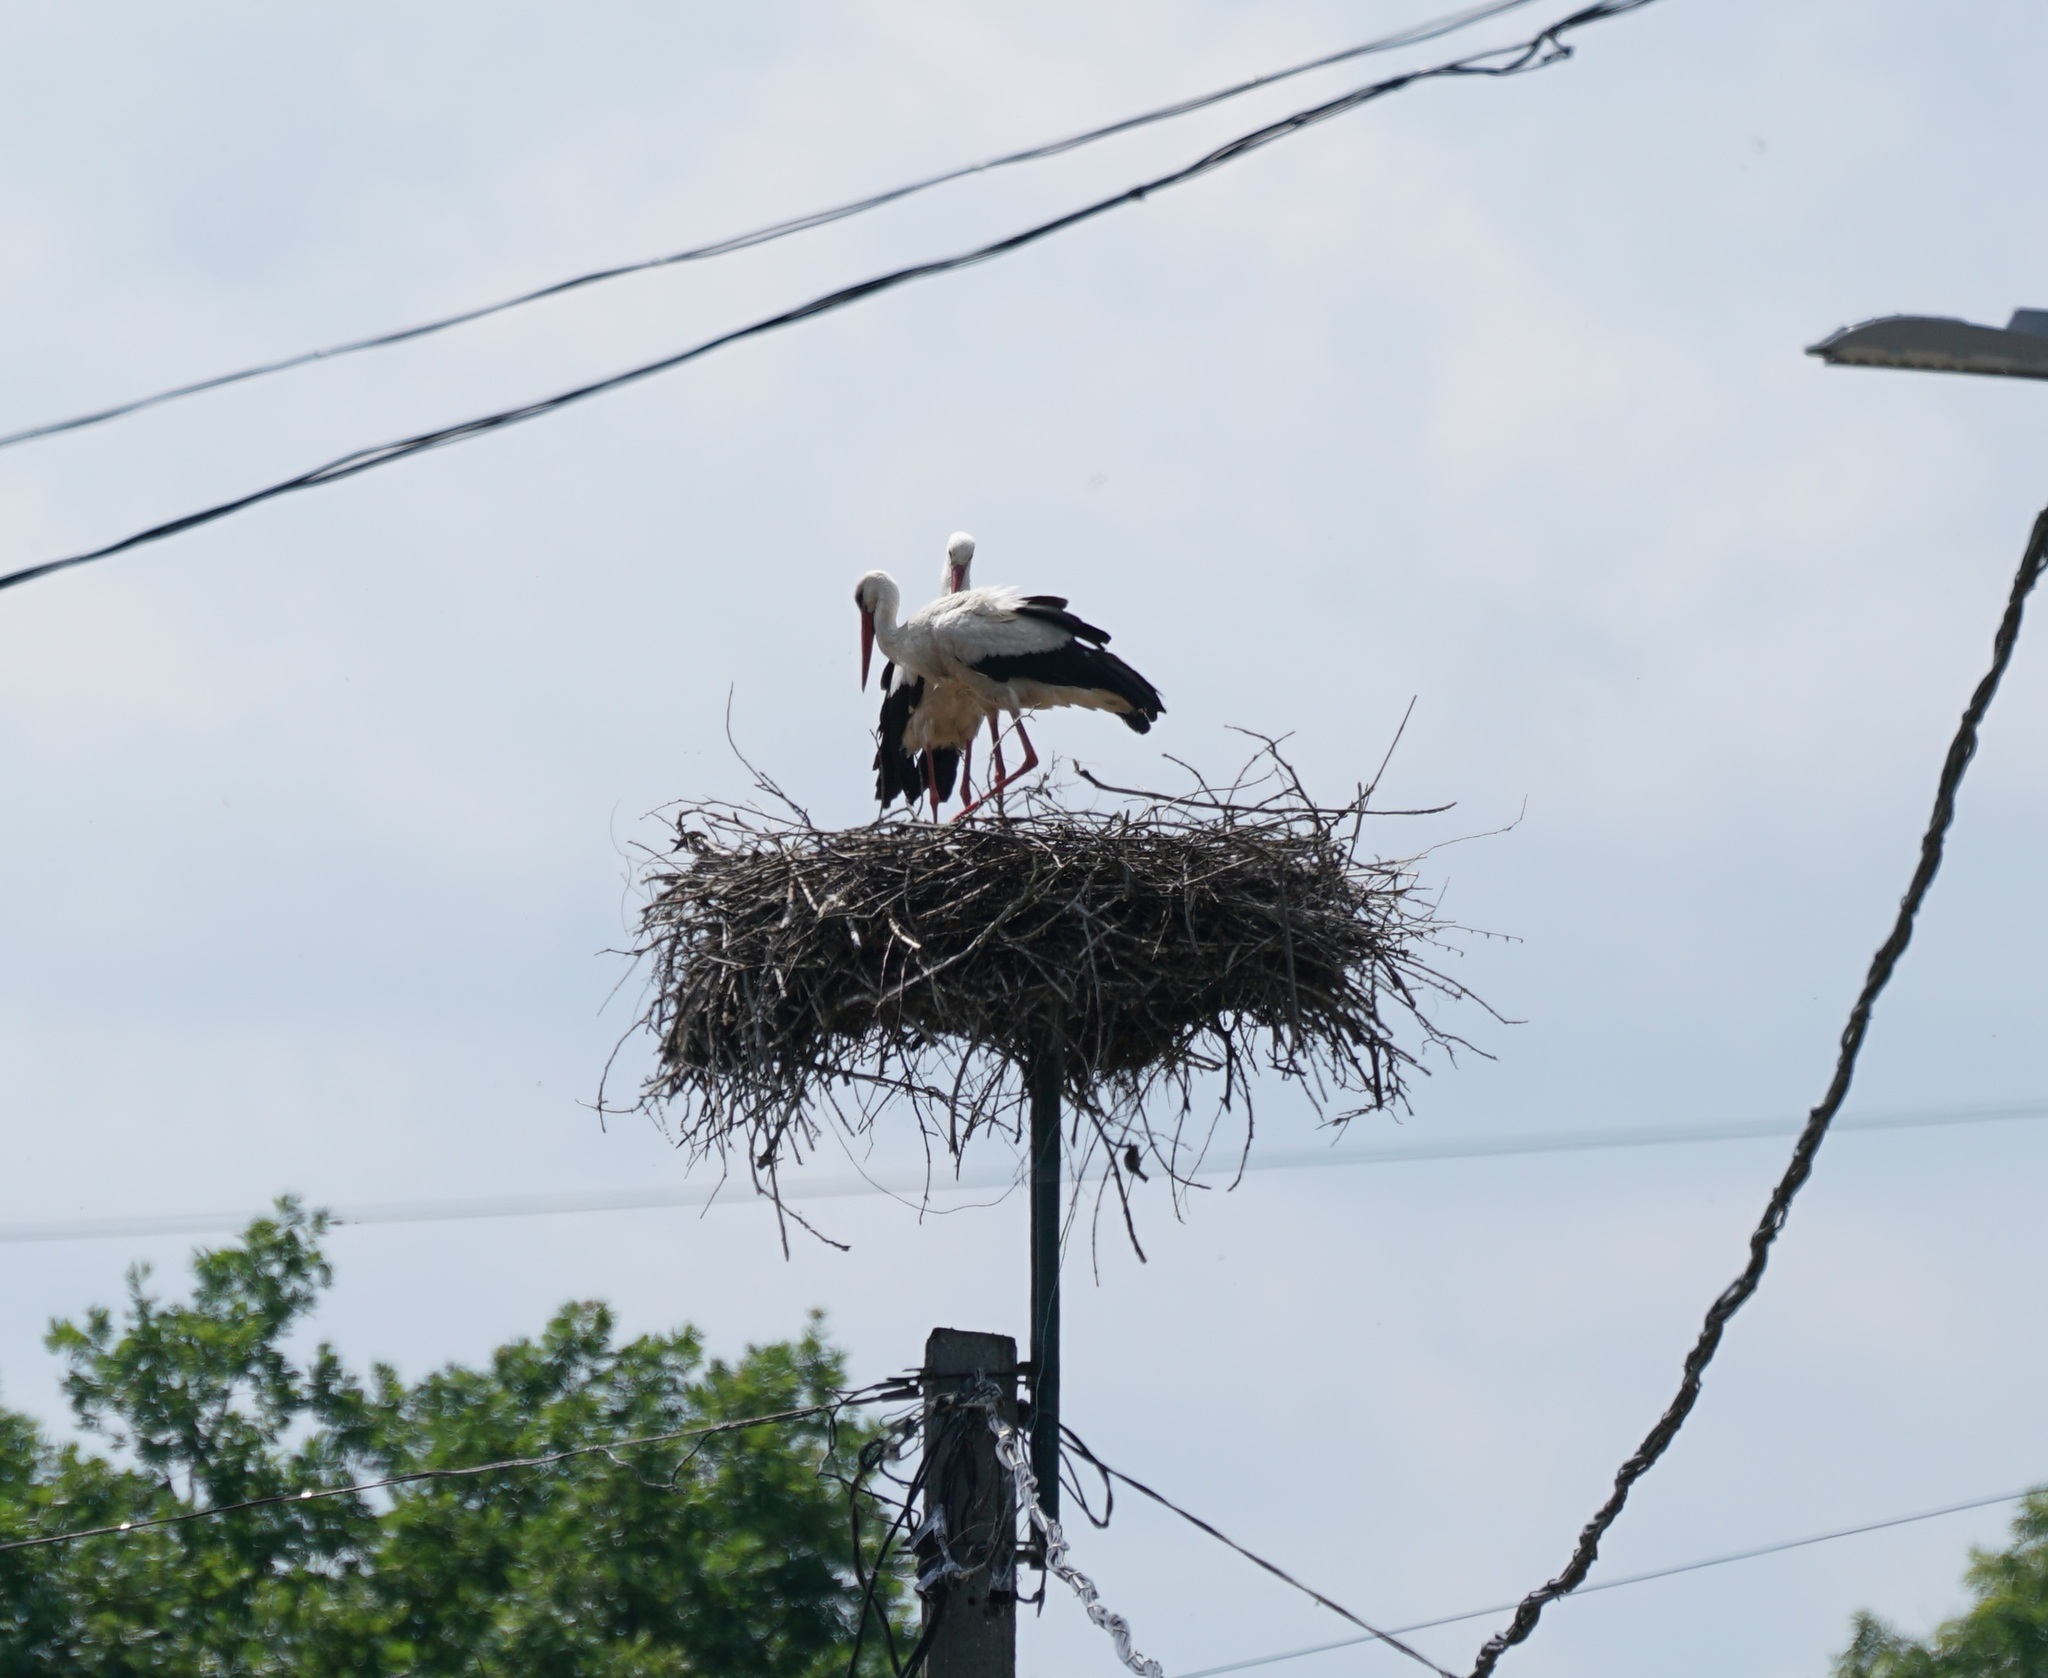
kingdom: Animalia
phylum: Chordata
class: Aves
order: Ciconiiformes
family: Ciconiidae
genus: Ciconia
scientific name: Ciconia ciconia
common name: White stork
